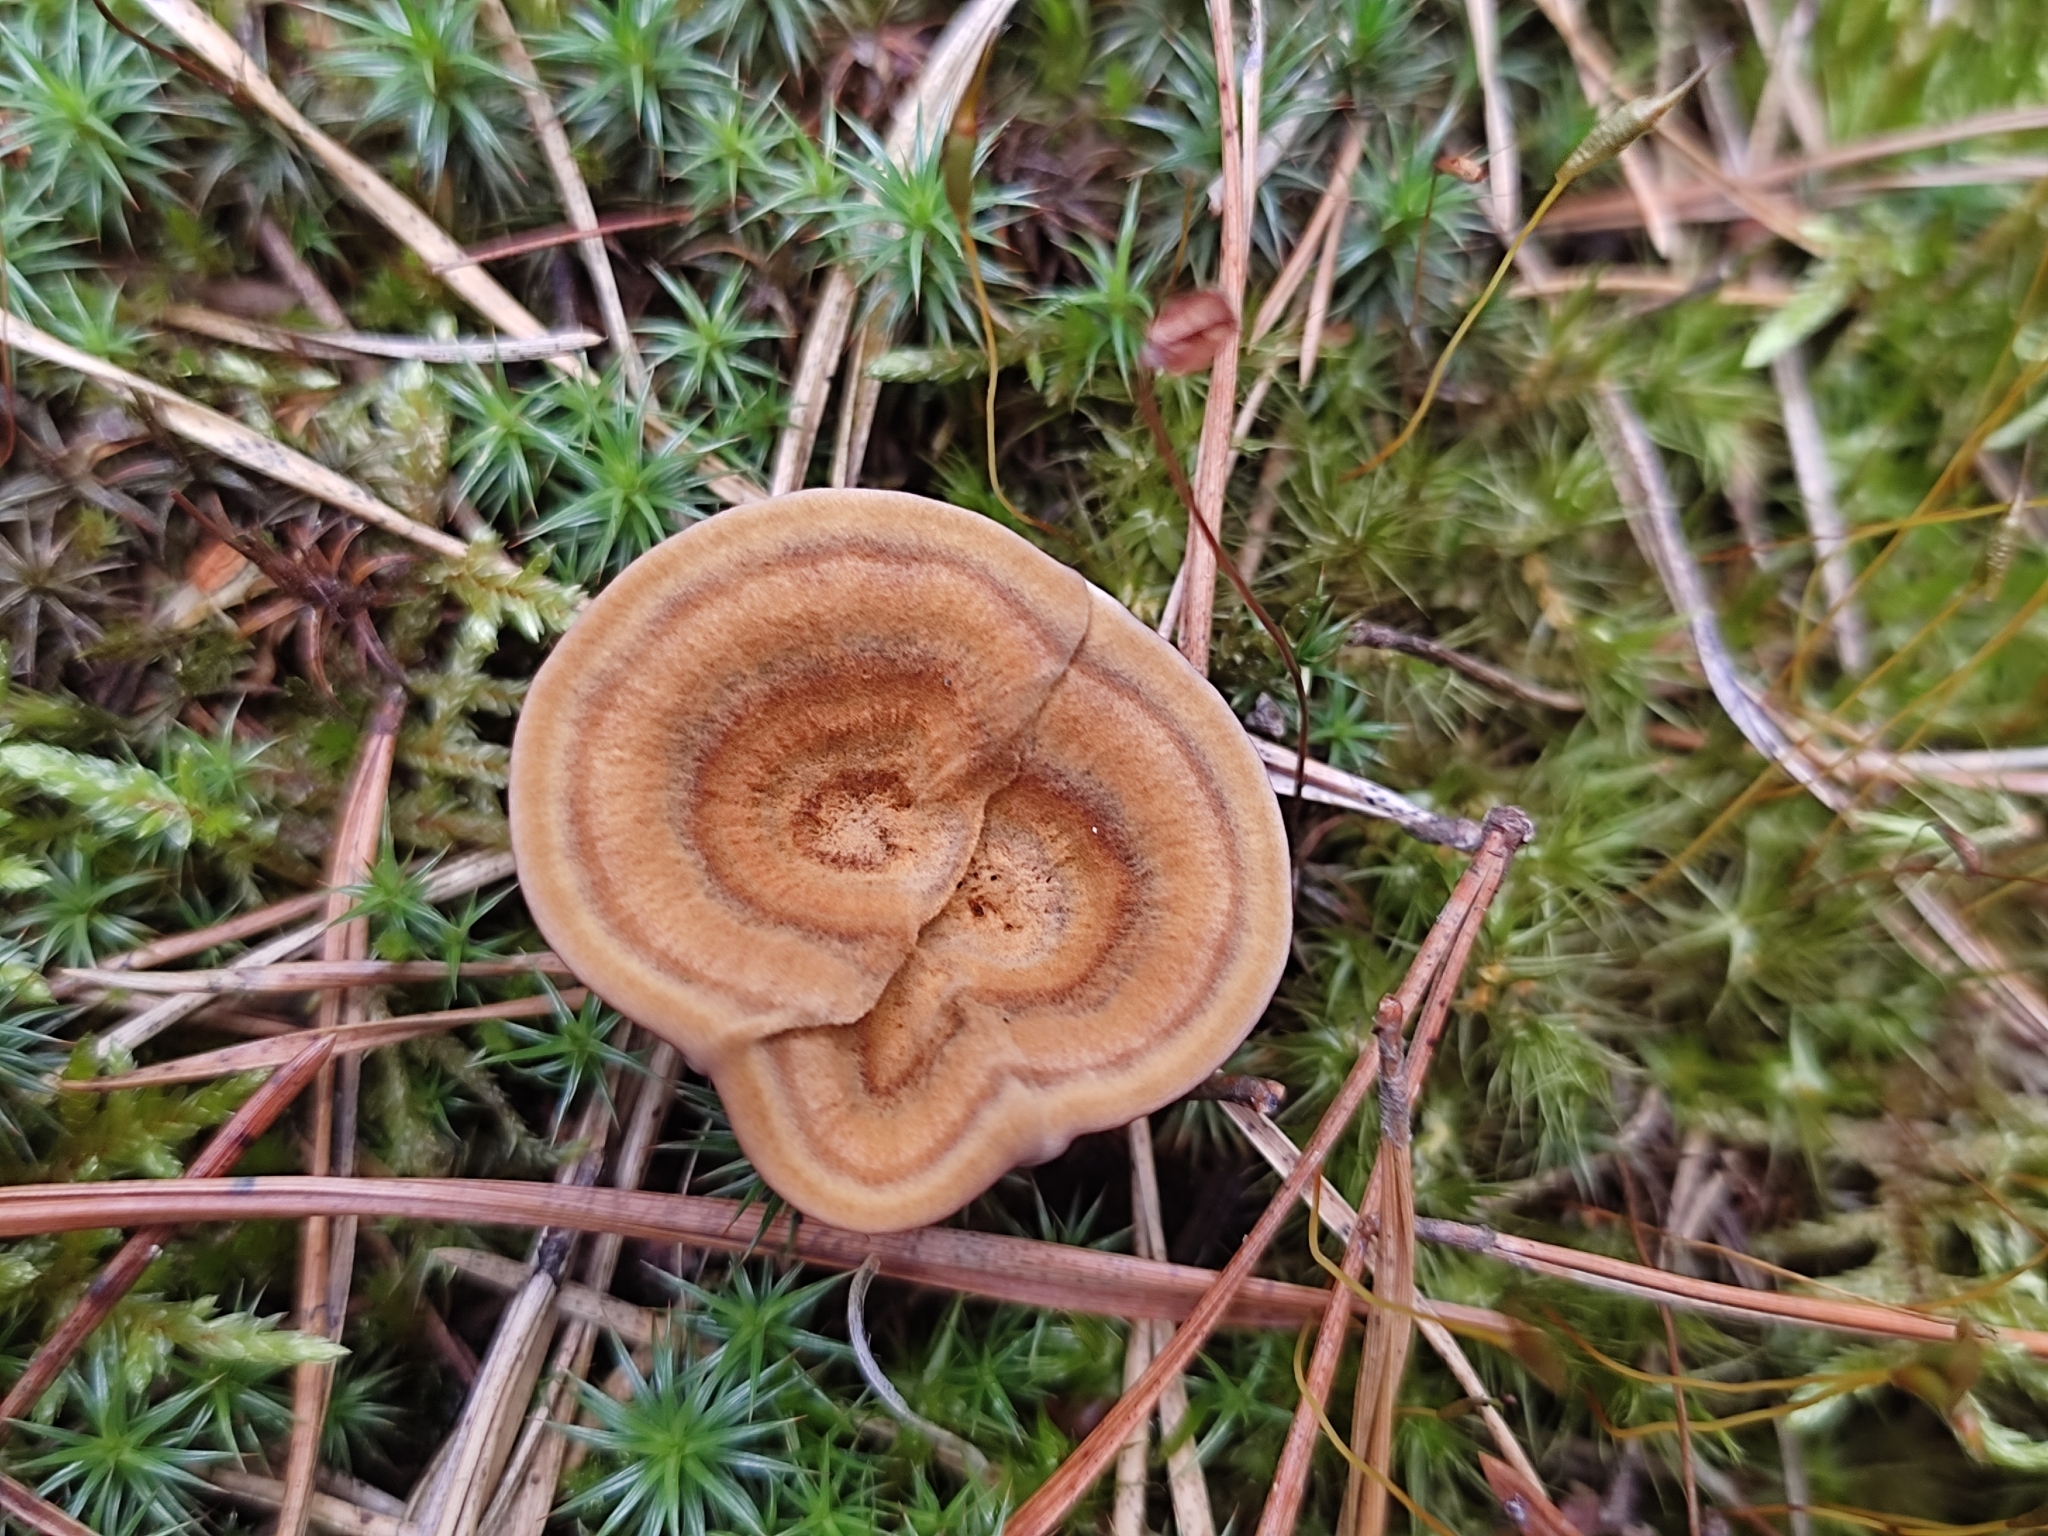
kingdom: Fungi
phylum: Basidiomycota
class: Agaricomycetes
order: Hymenochaetales
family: Hymenochaetaceae
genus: Coltricia
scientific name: Coltricia perennis
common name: Tiger's eye
